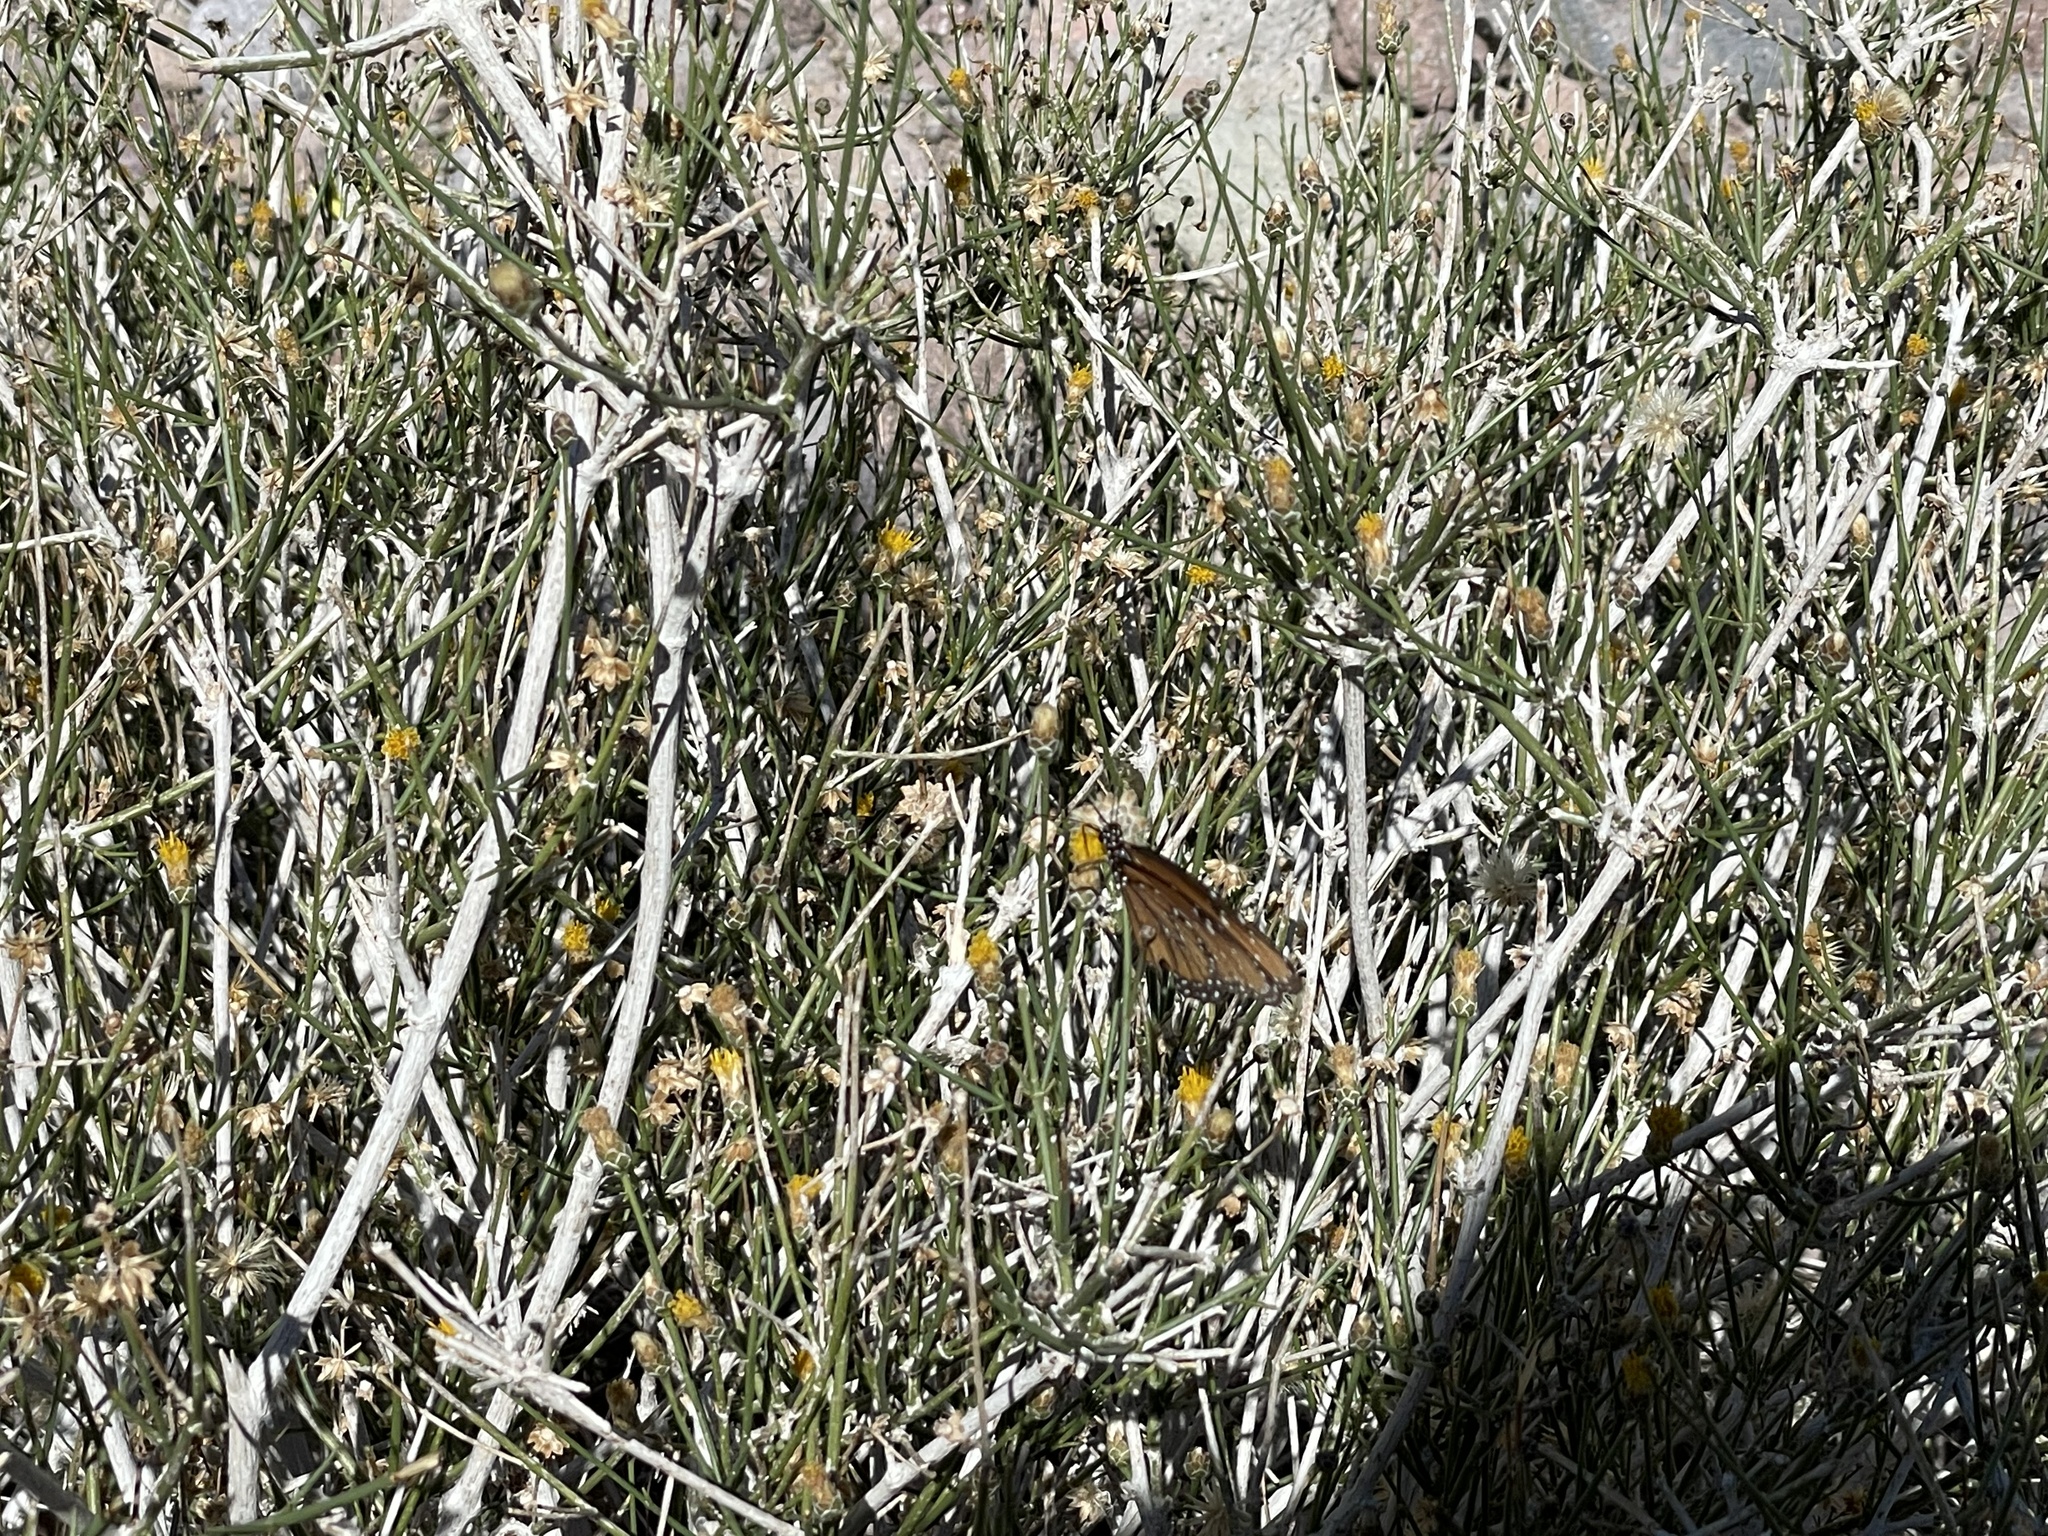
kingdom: Animalia
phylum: Arthropoda
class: Insecta
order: Lepidoptera
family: Nymphalidae
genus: Danaus
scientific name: Danaus gilippus
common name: Queen
